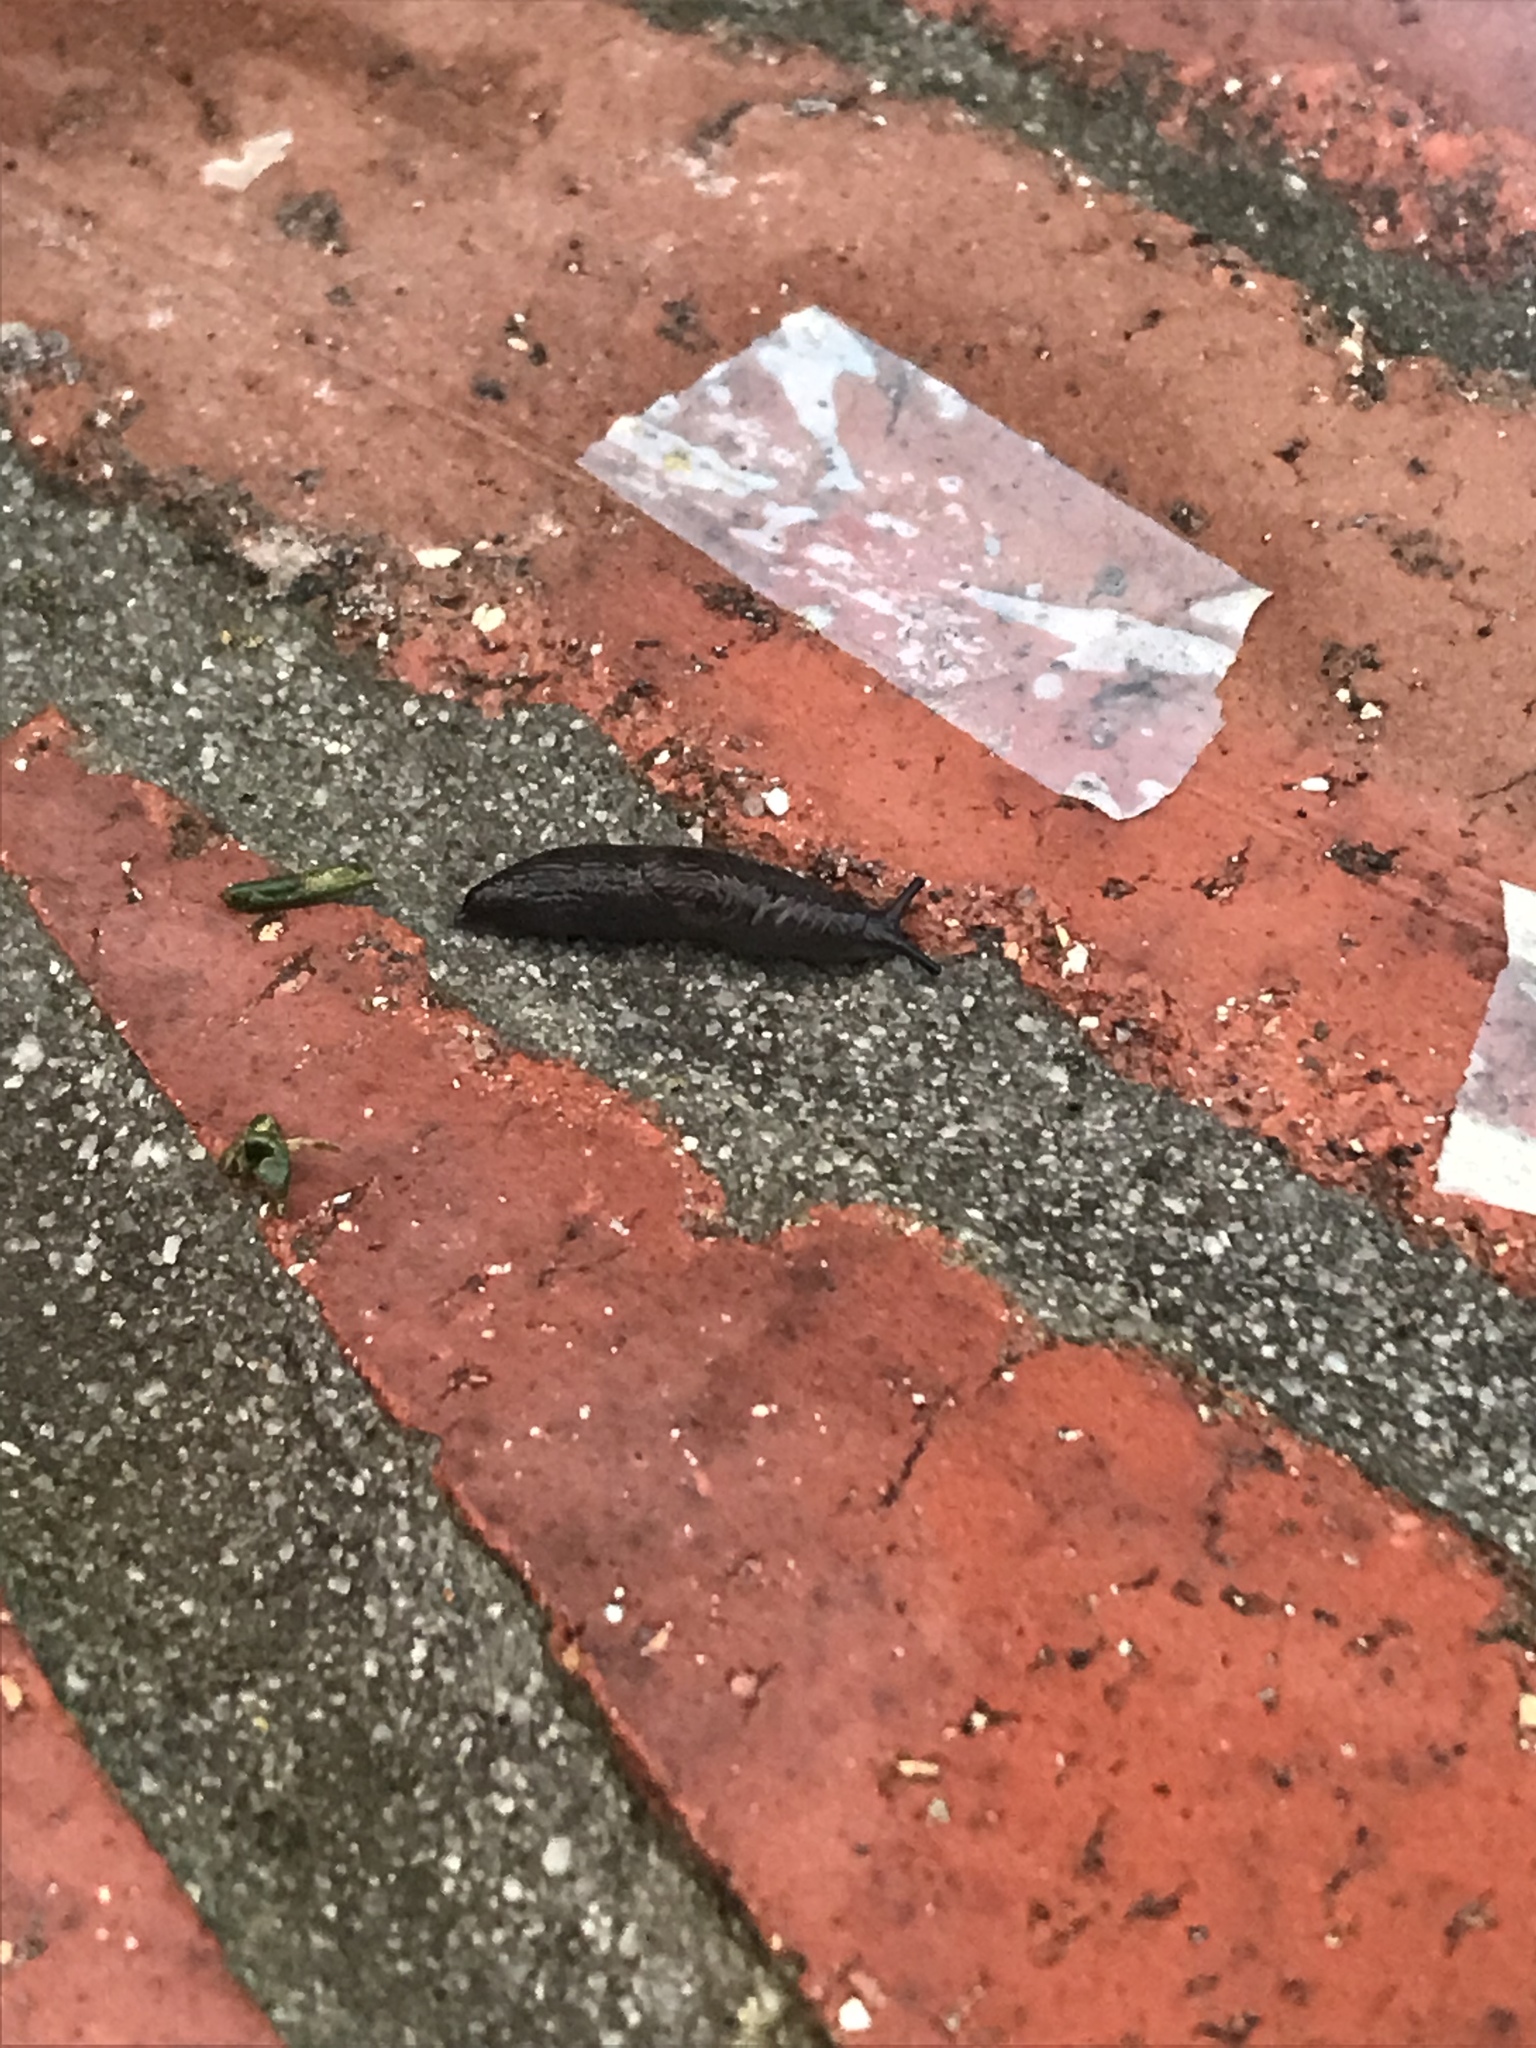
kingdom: Animalia
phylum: Mollusca
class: Gastropoda
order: Stylommatophora
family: Agriolimacidae
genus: Deroceras
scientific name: Deroceras laeve
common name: Marsh slug
